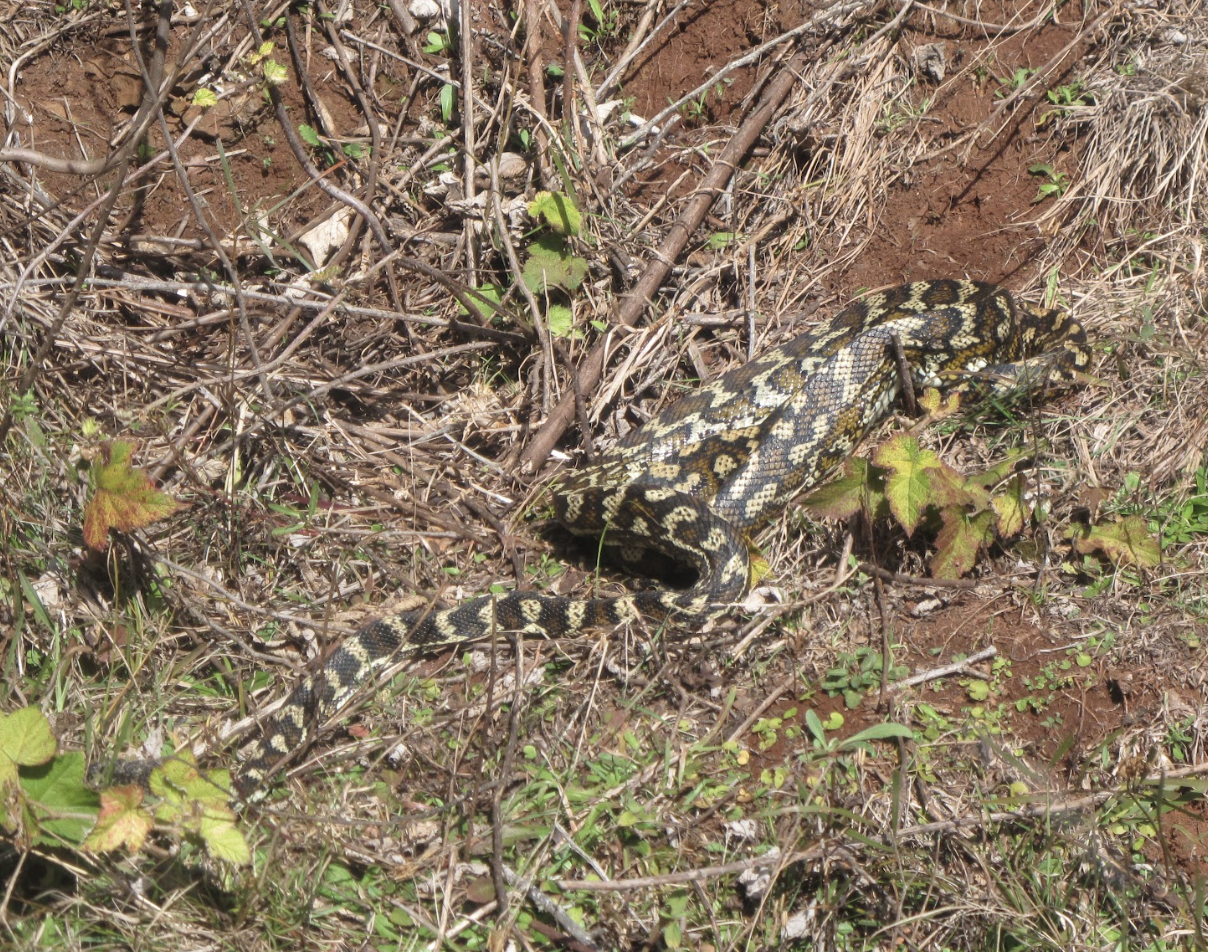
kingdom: Animalia
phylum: Chordata
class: Squamata
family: Pythonidae
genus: Morelia
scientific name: Morelia spilota
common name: Carpet python
